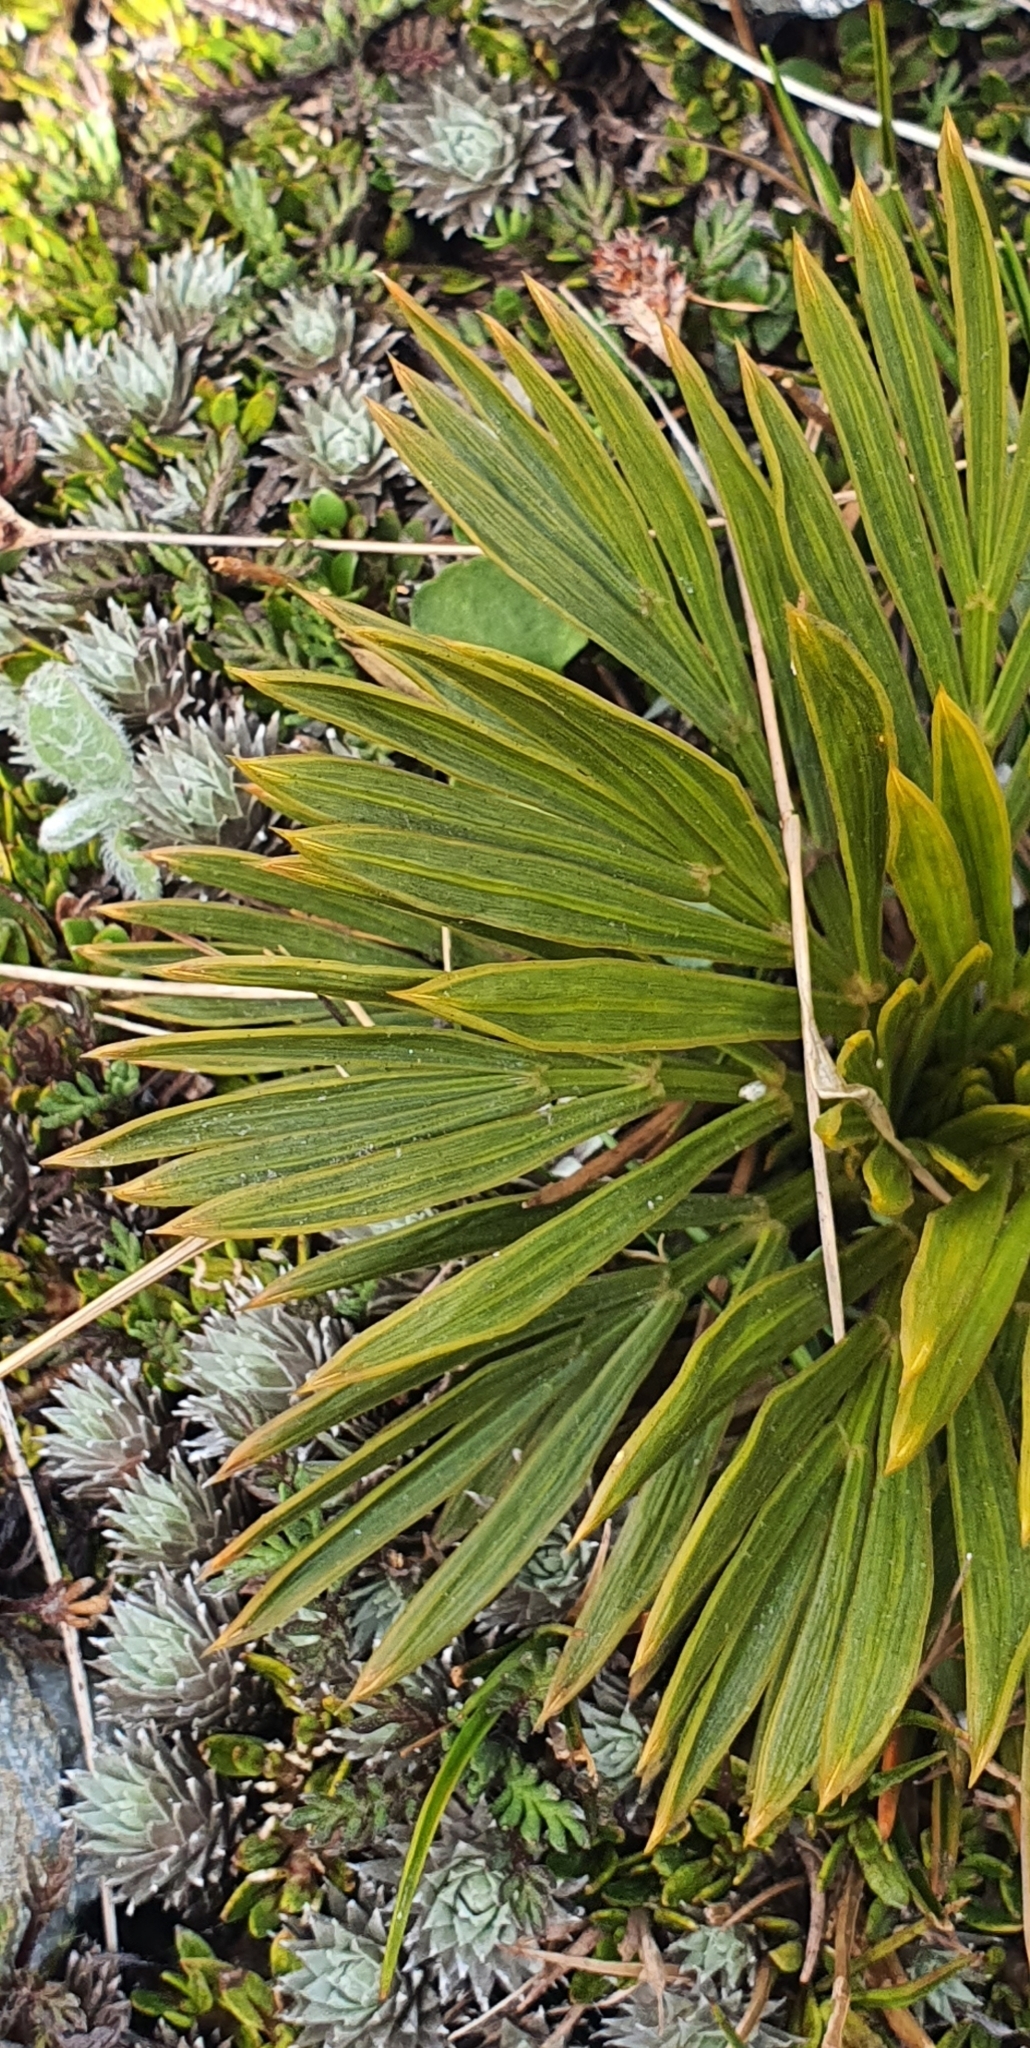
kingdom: Plantae
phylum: Tracheophyta
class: Magnoliopsida
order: Apiales
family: Apiaceae
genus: Aciphylla
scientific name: Aciphylla lecomtei
